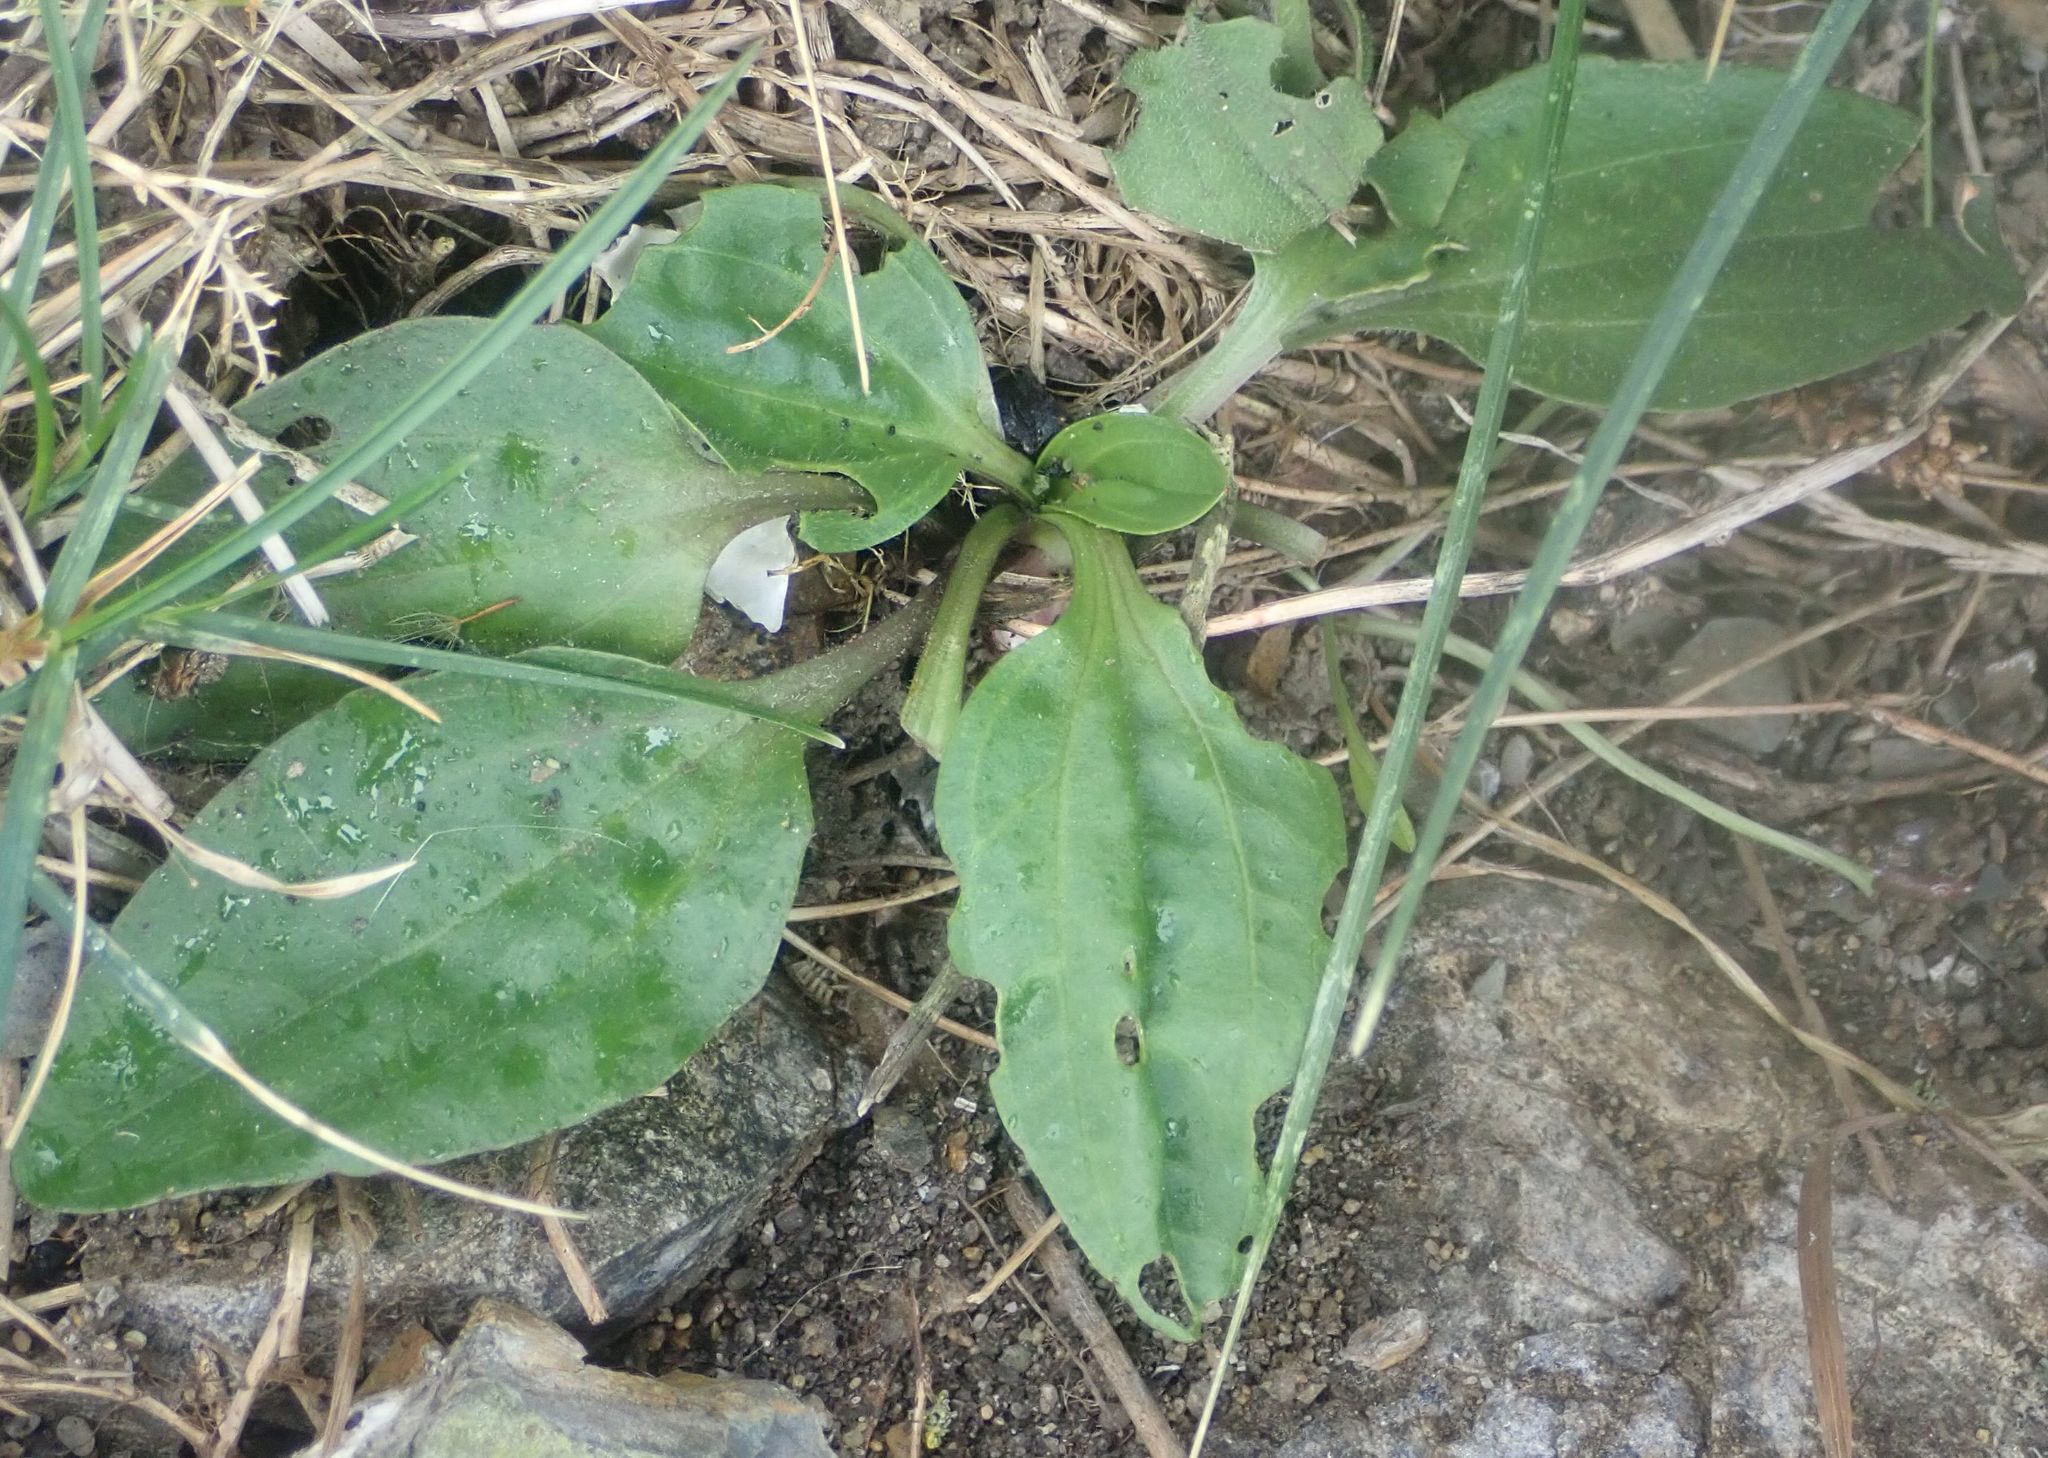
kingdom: Plantae
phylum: Tracheophyta
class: Magnoliopsida
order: Lamiales
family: Plantaginaceae
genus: Plantago
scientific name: Plantago major
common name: Common plantain
